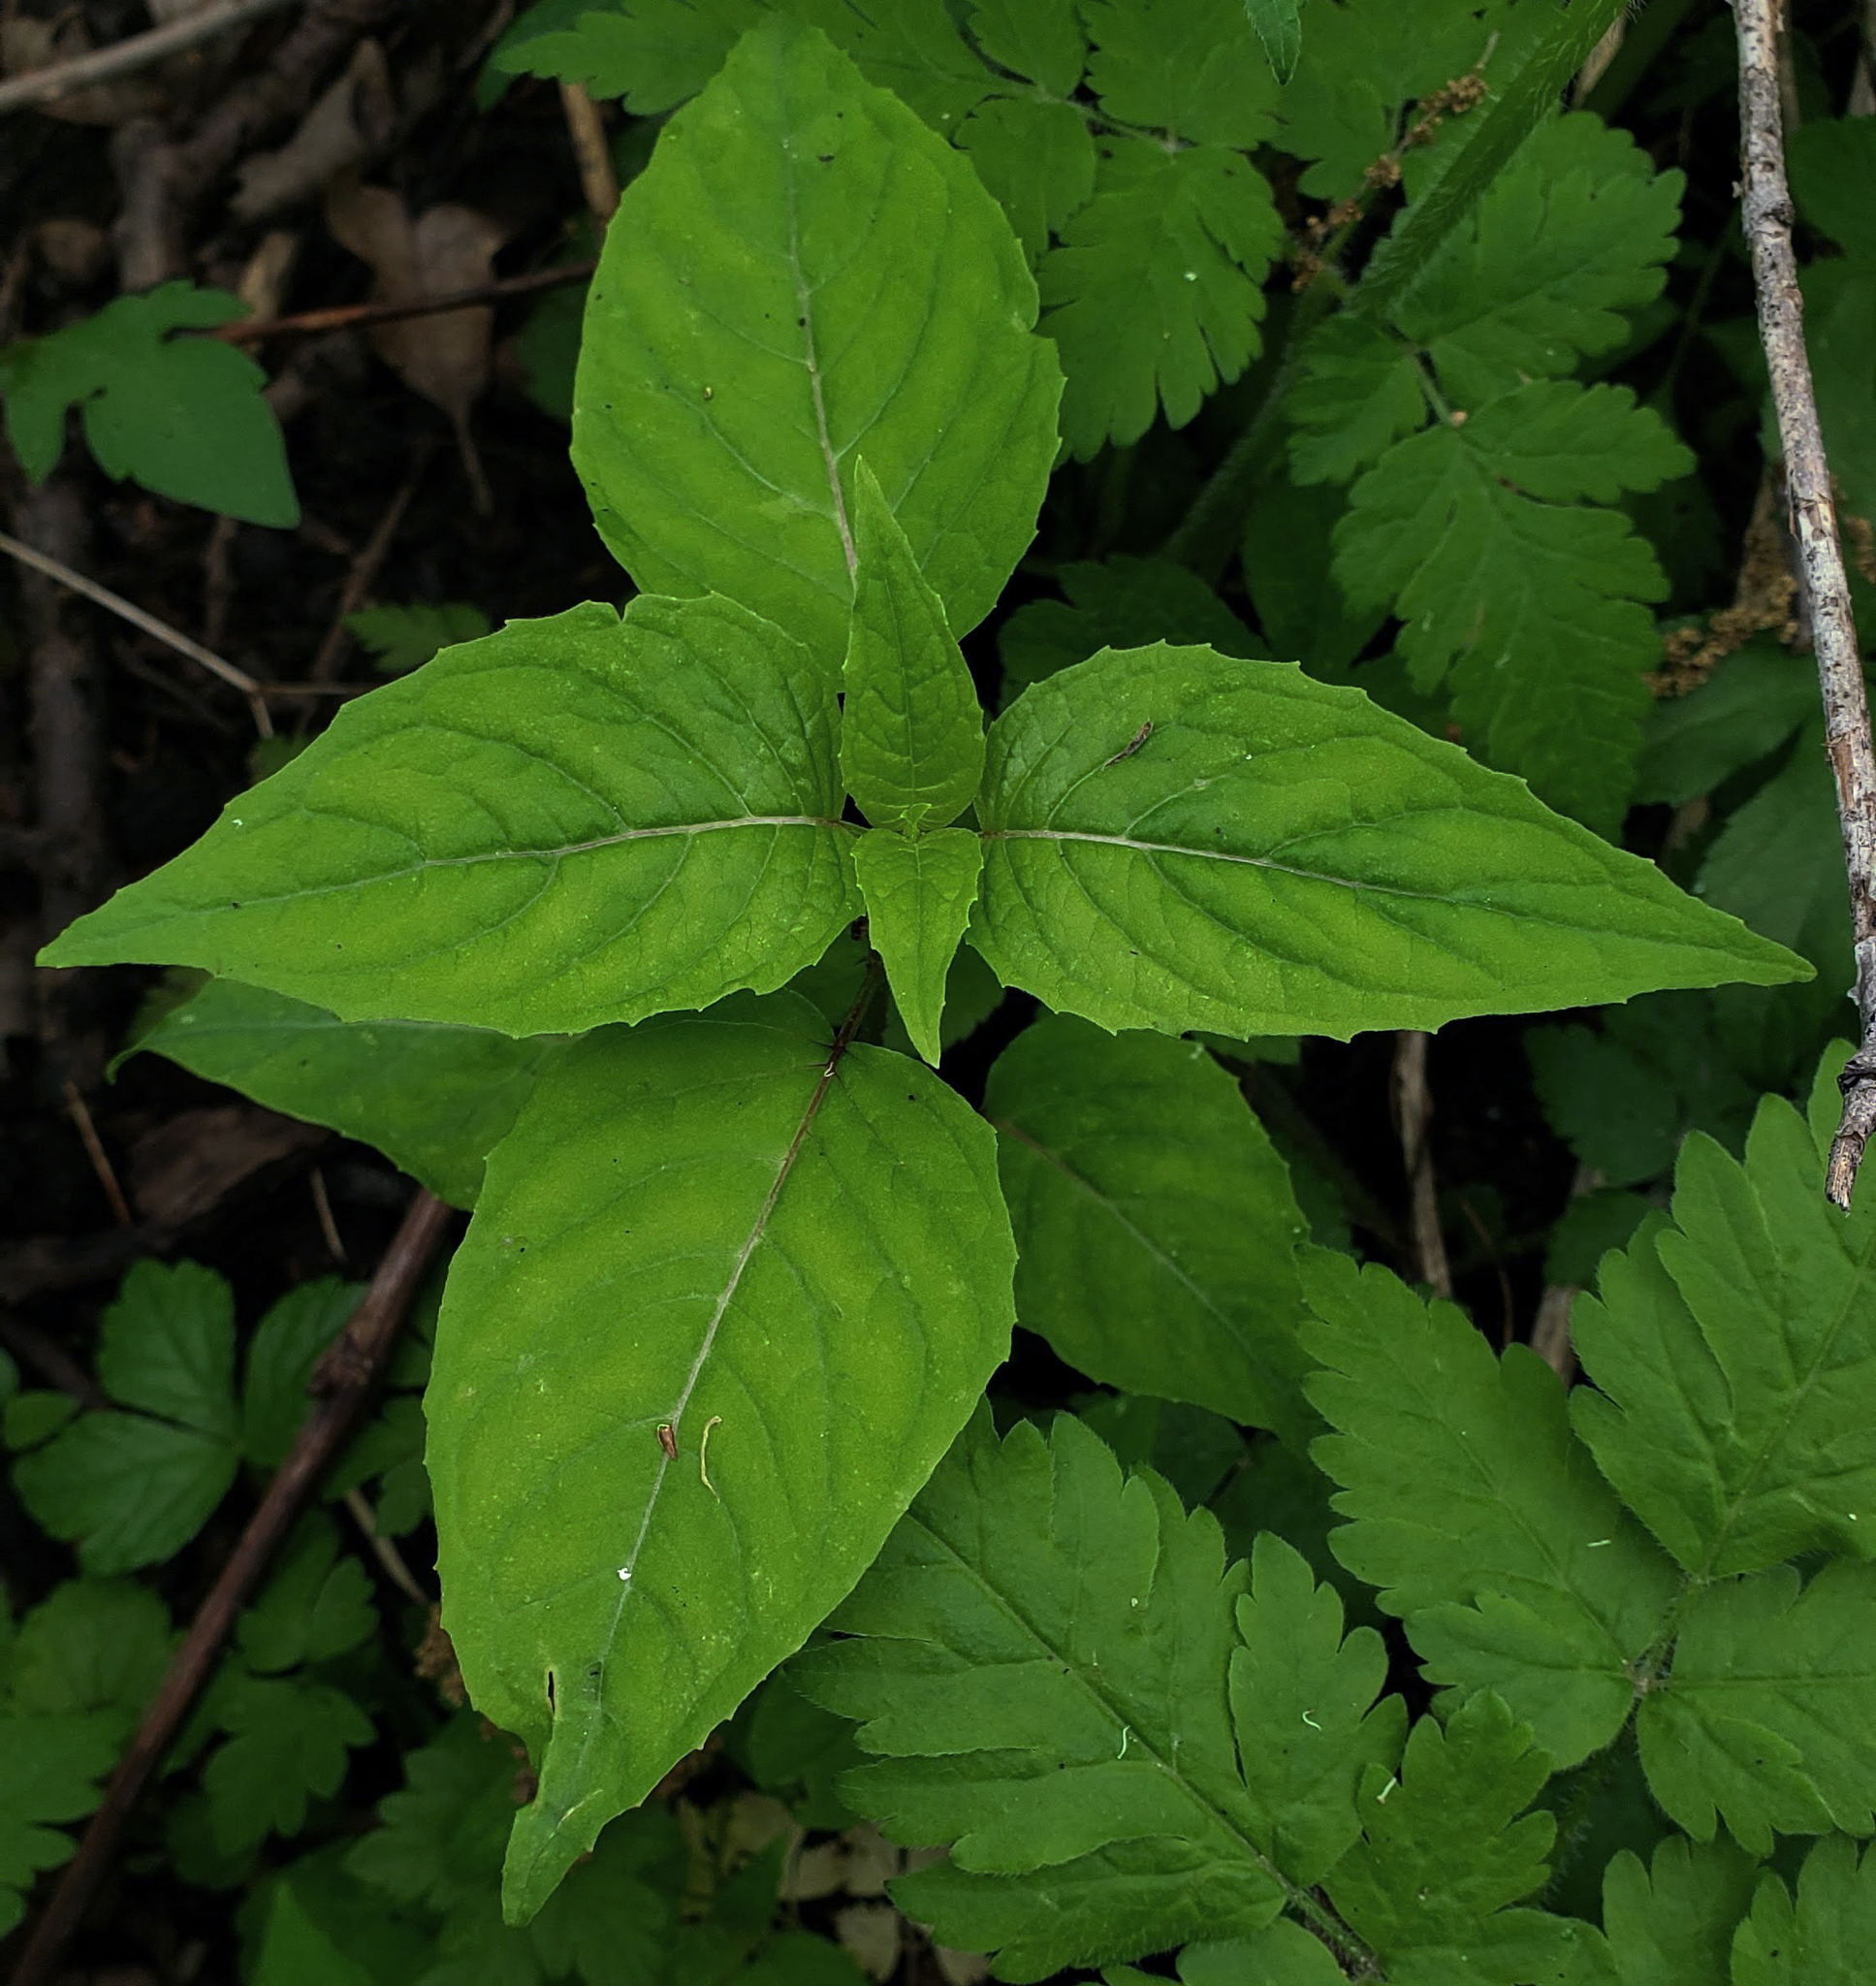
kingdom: Plantae
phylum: Tracheophyta
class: Magnoliopsida
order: Myrtales
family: Onagraceae
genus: Circaea
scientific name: Circaea canadensis
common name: Broad-leaved enchanter's nightshade
